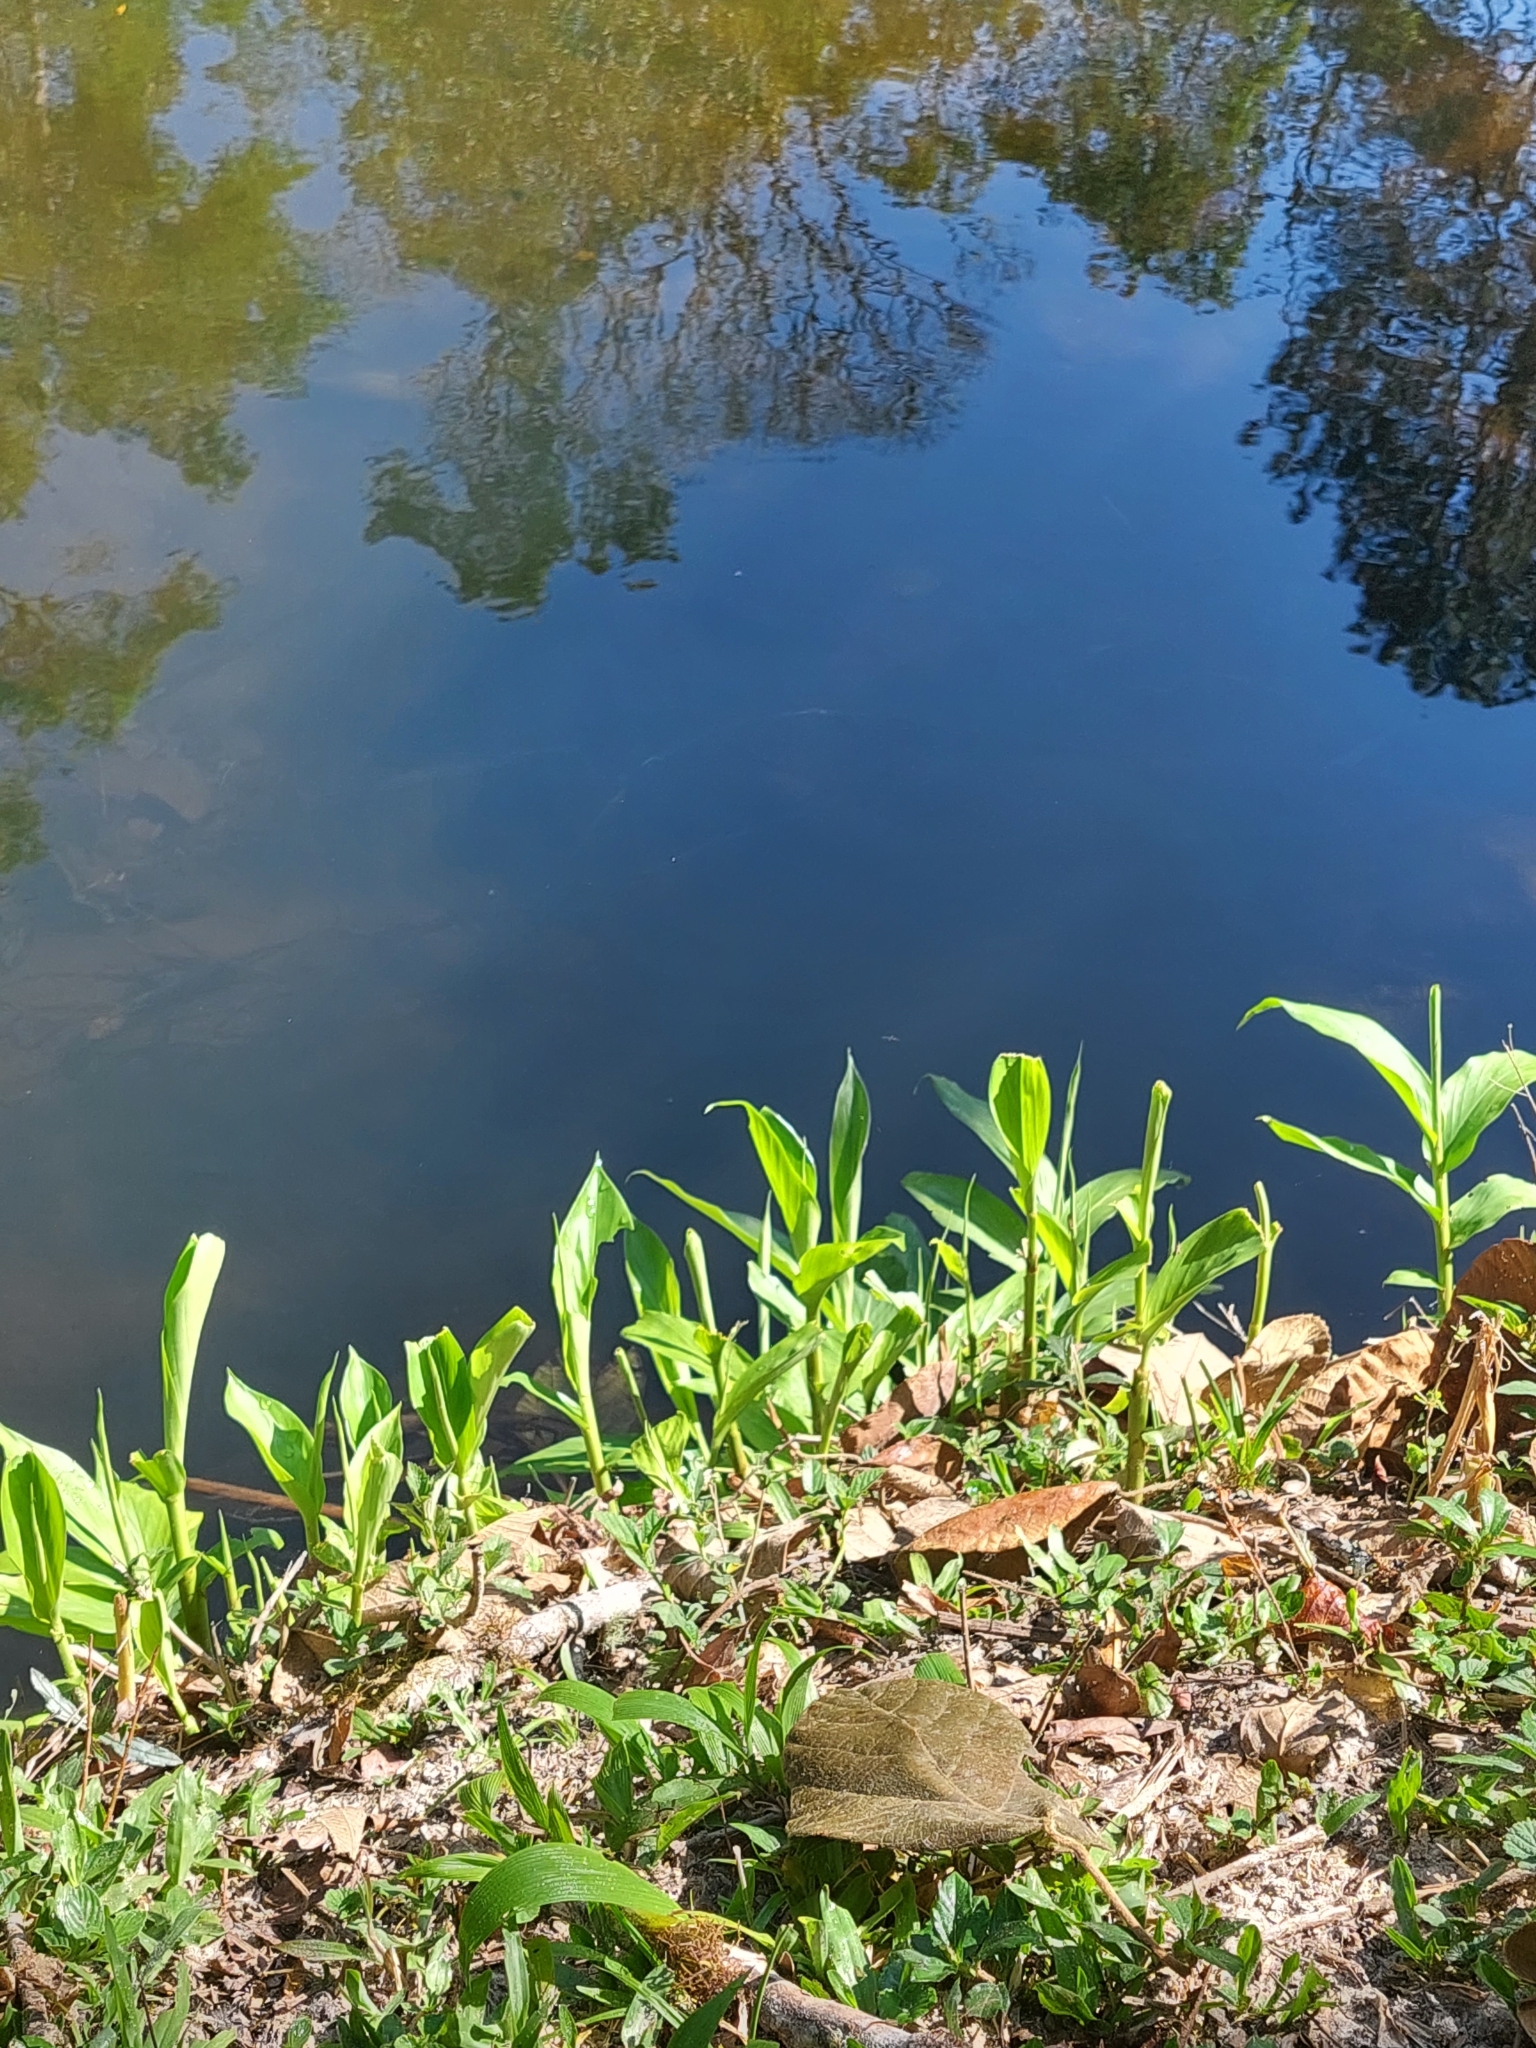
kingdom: Plantae
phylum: Tracheophyta
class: Liliopsida
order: Zingiberales
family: Zingiberaceae
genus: Hedychium
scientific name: Hedychium coronarium
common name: White garland-lily
